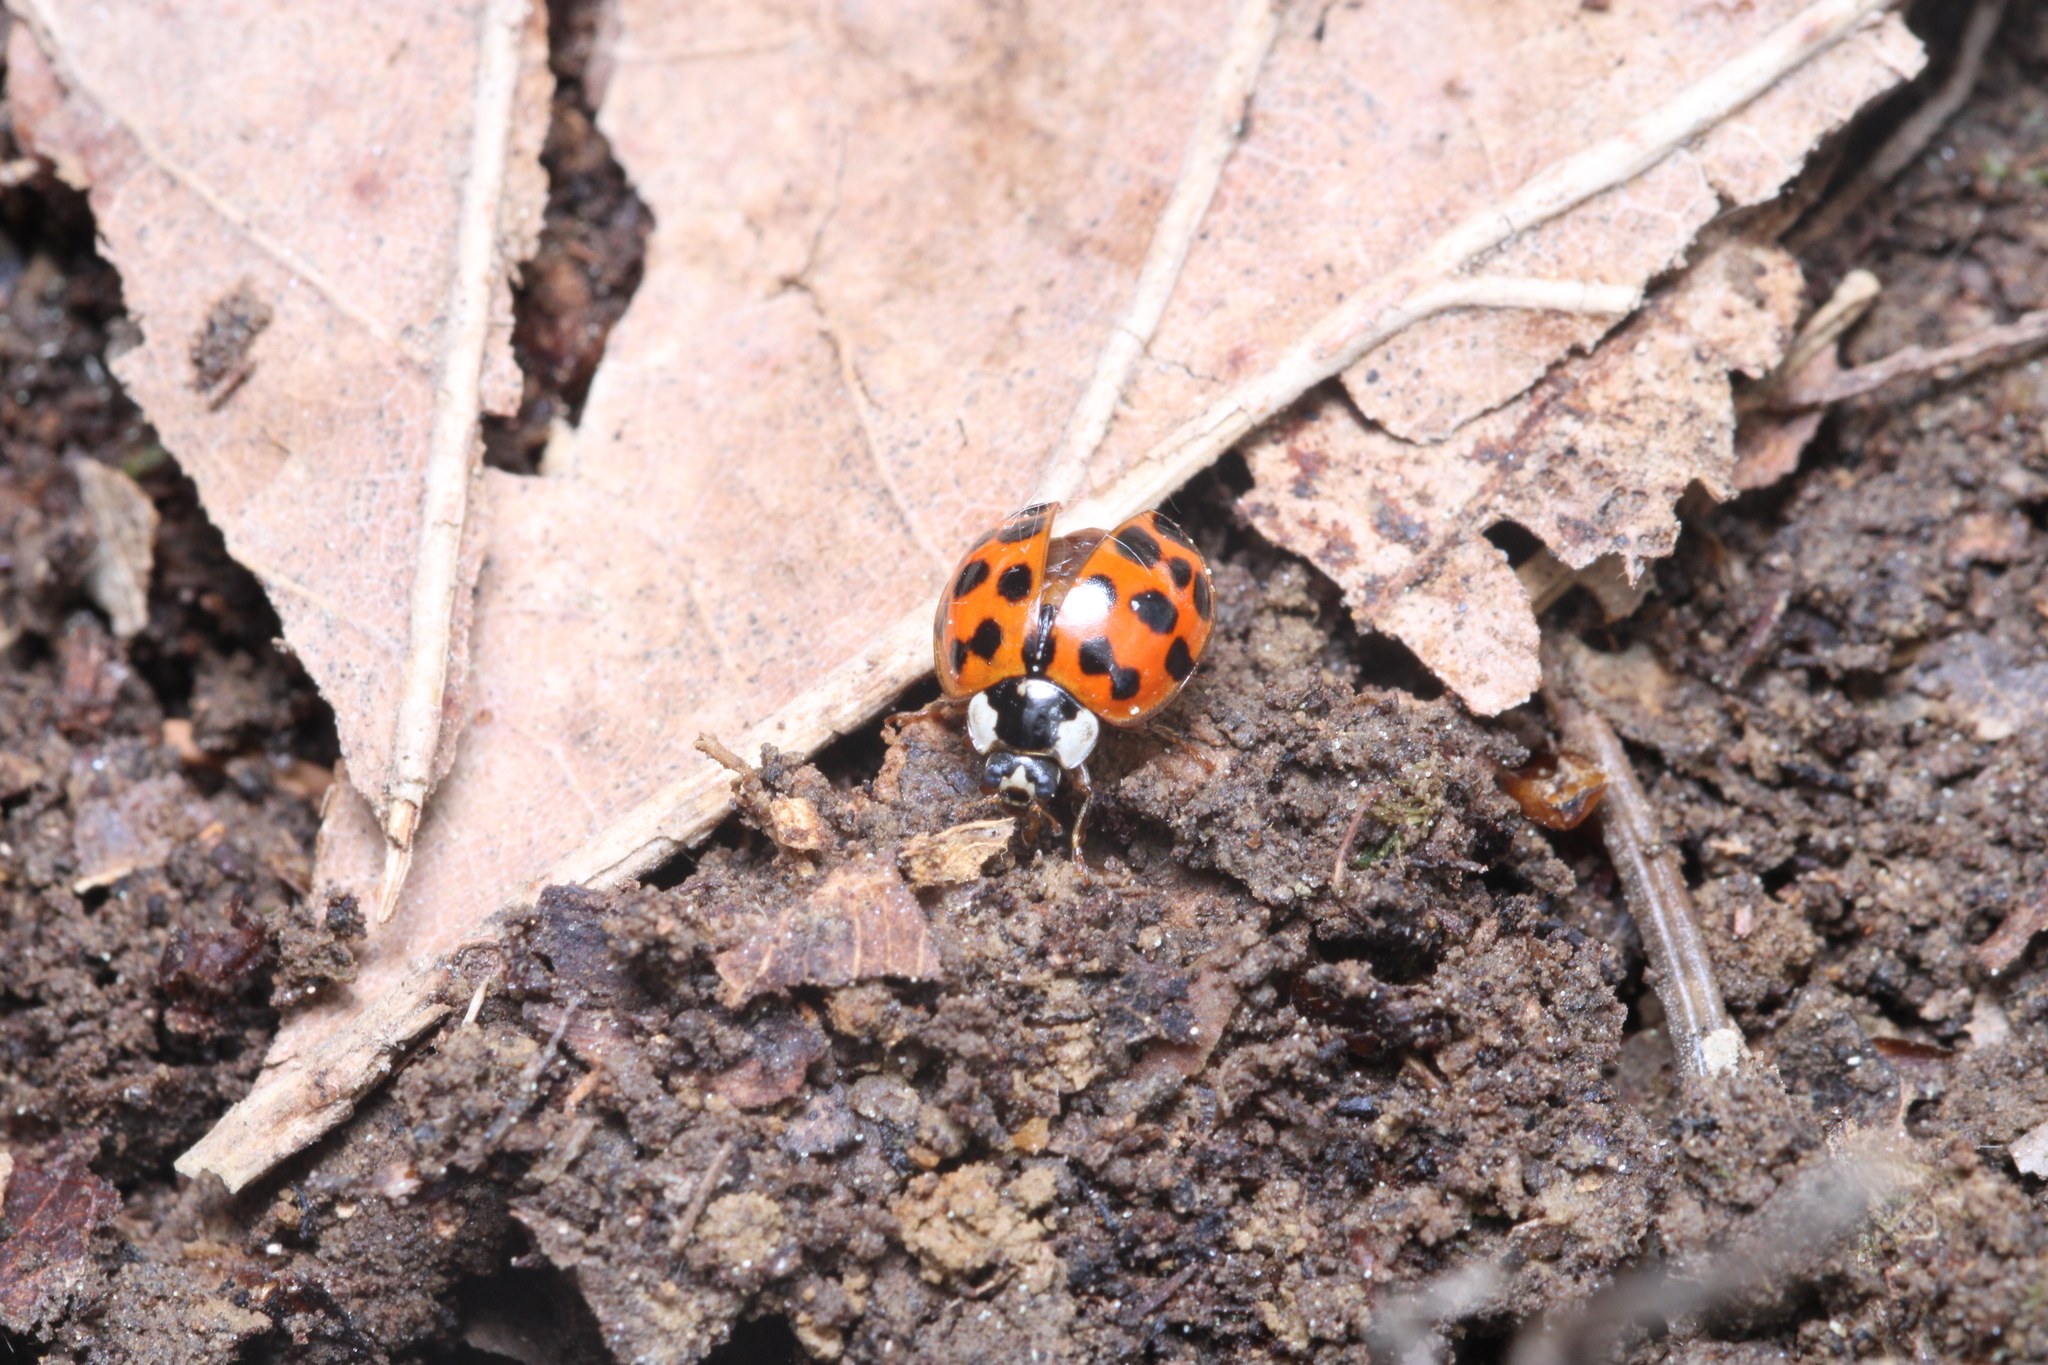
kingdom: Animalia
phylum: Arthropoda
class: Insecta
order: Coleoptera
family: Coccinellidae
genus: Harmonia
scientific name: Harmonia axyridis
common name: Harlequin ladybird
